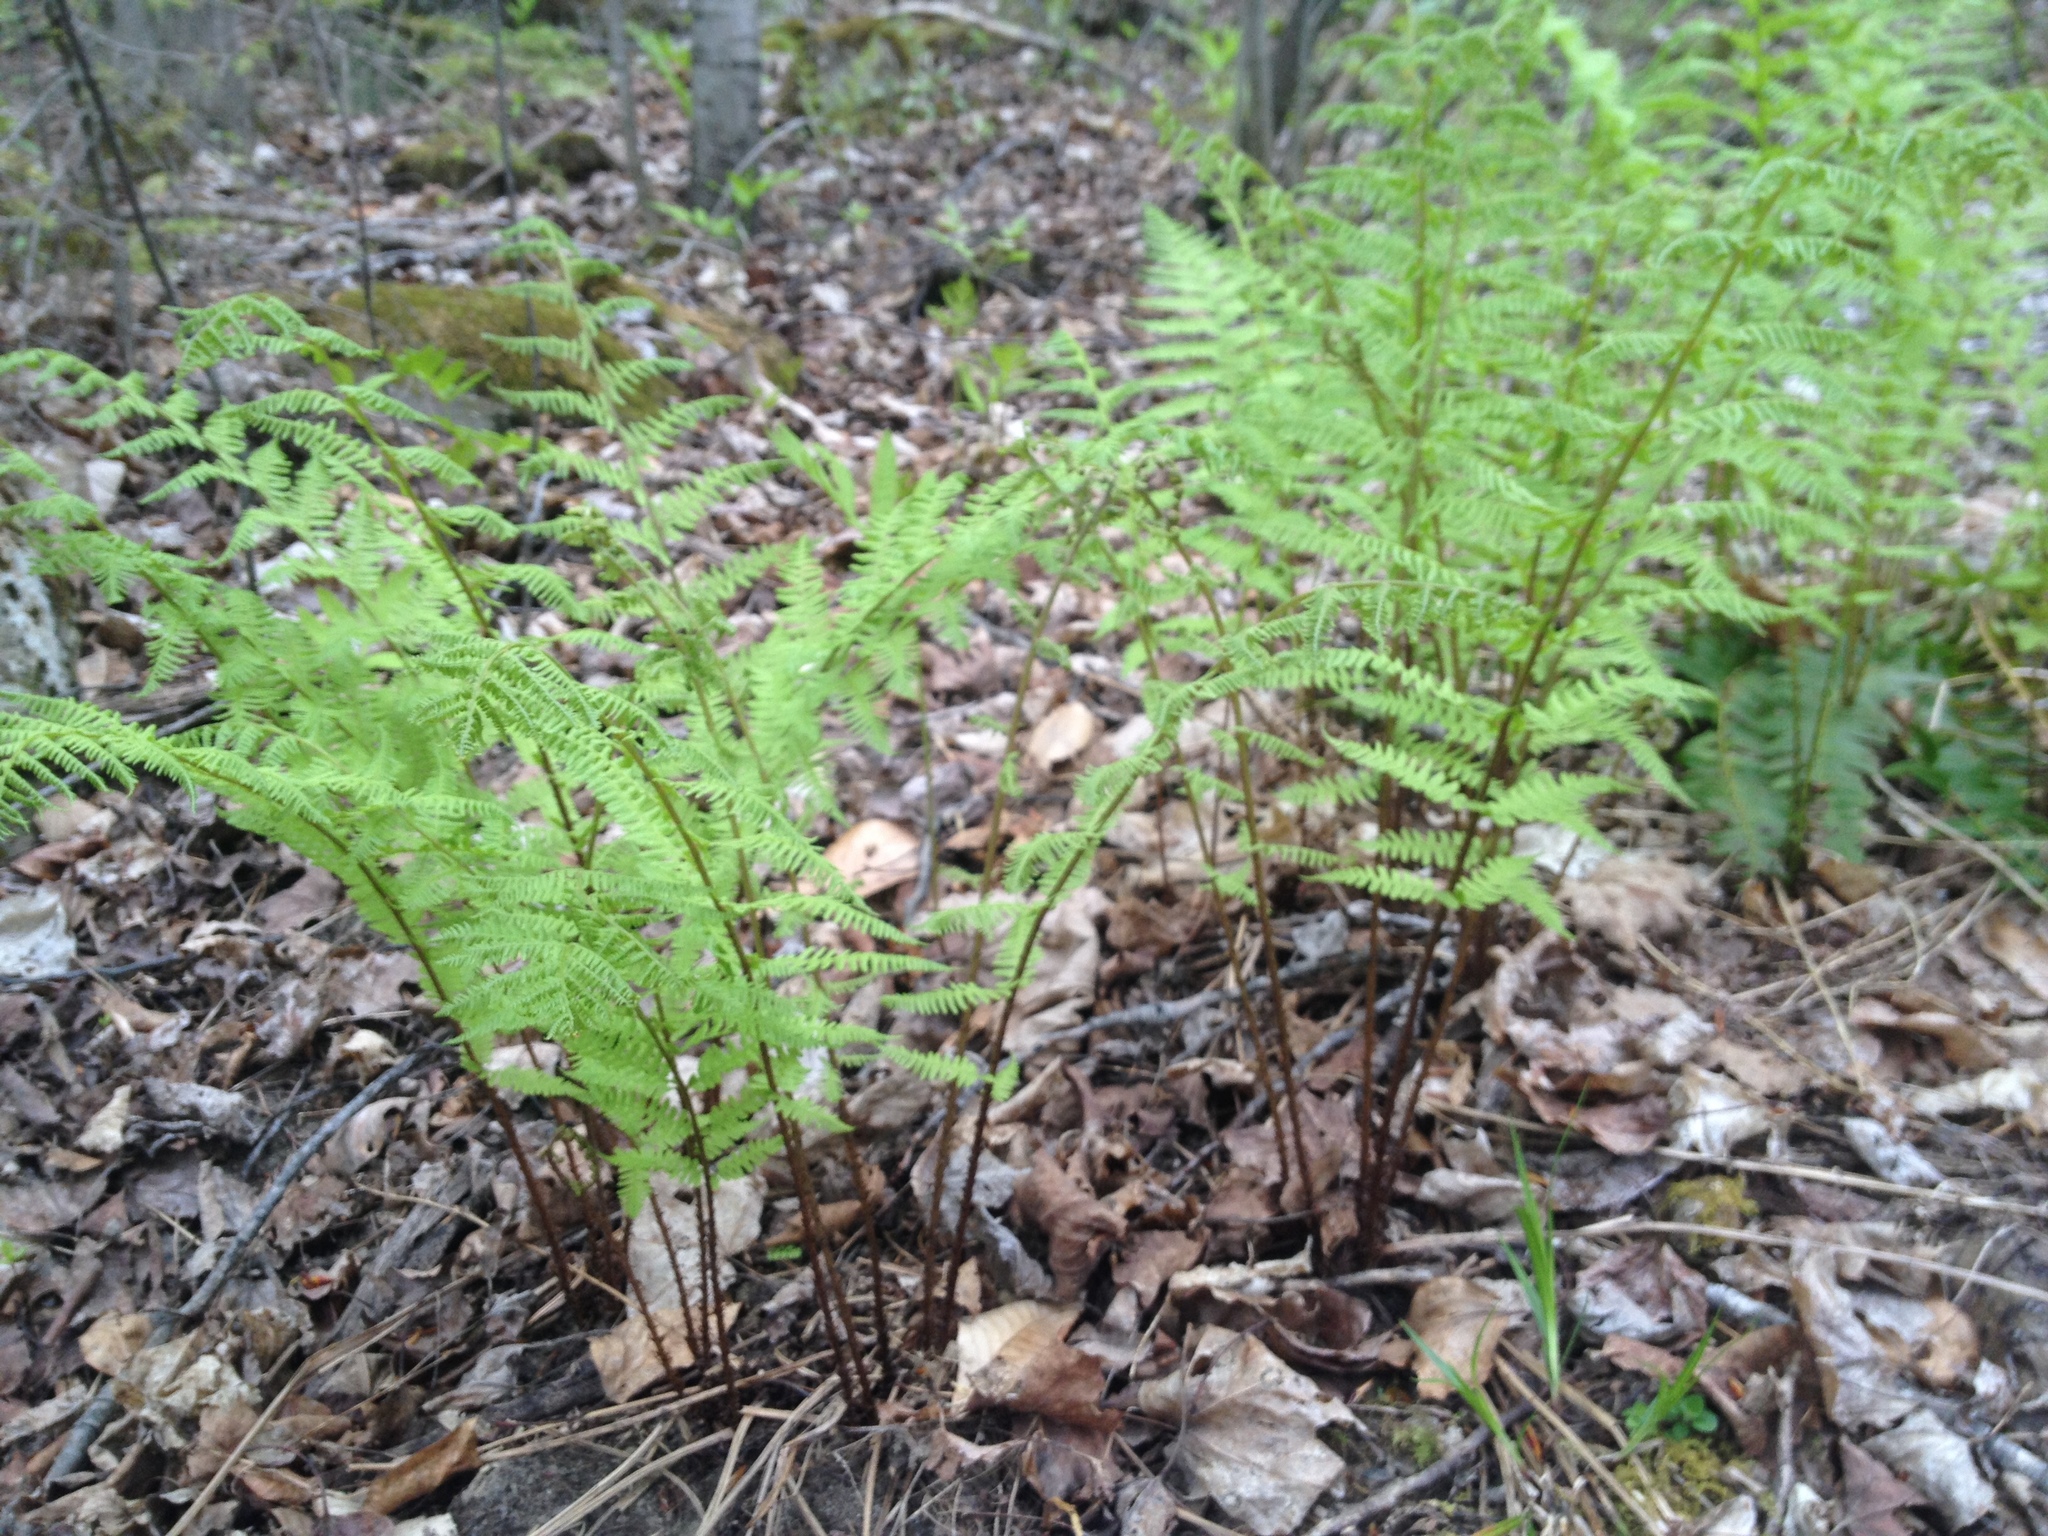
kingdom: Plantae
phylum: Tracheophyta
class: Polypodiopsida
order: Polypodiales
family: Athyriaceae
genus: Athyrium
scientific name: Athyrium angustum
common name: Northern lady fern
